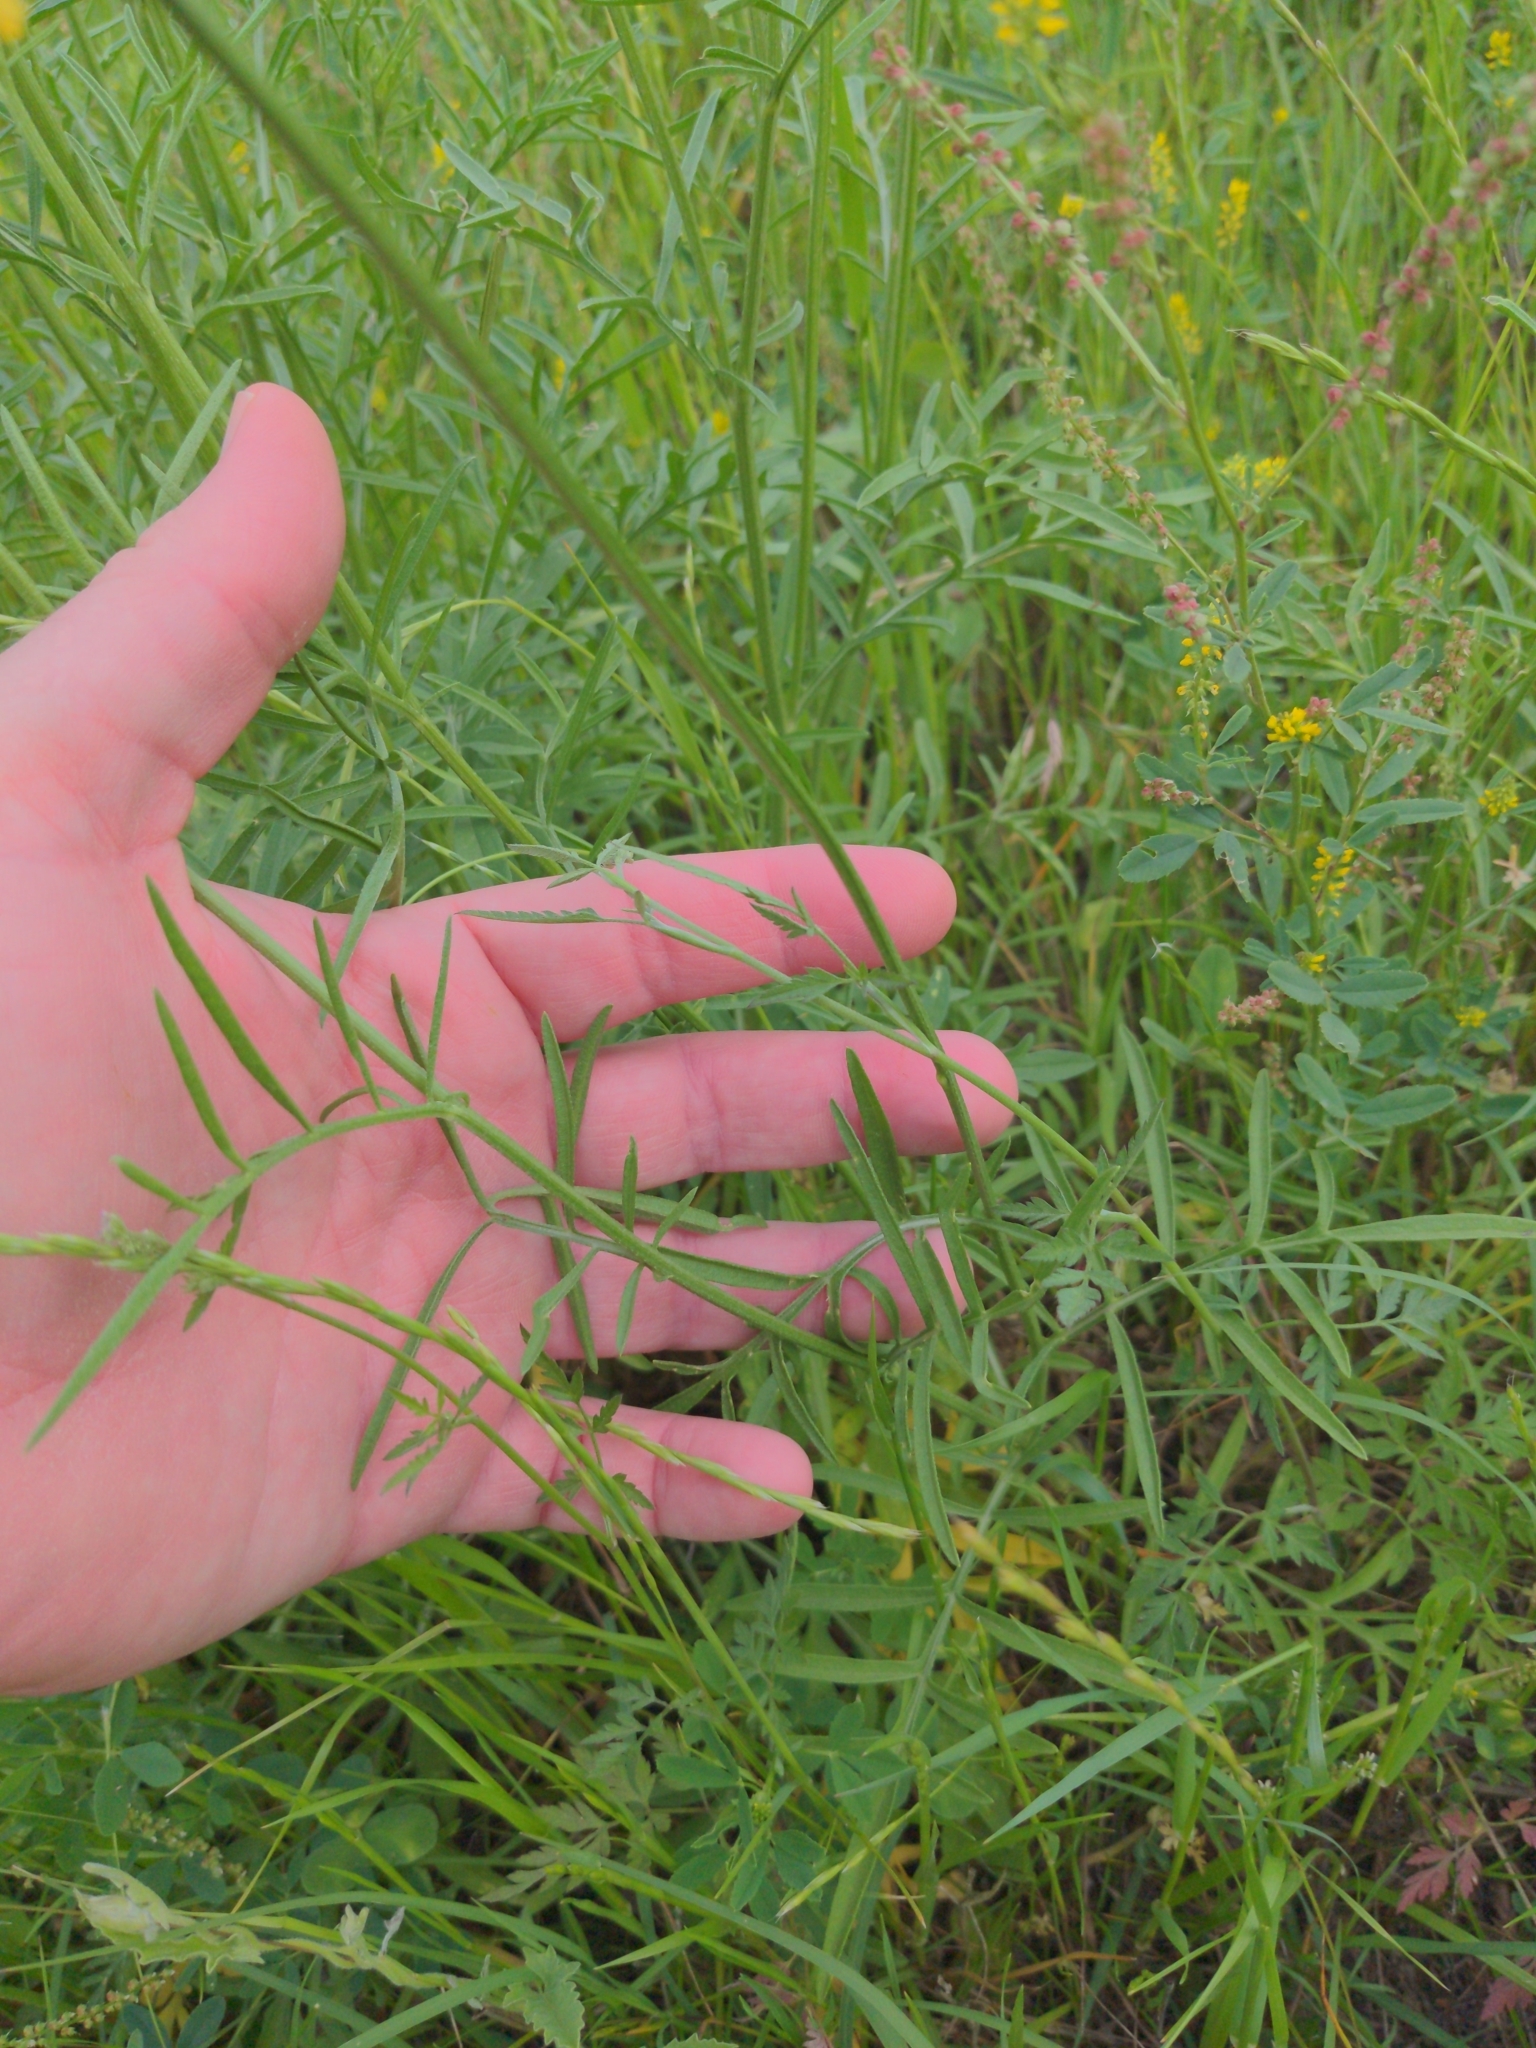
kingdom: Plantae
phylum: Tracheophyta
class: Magnoliopsida
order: Asterales
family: Asteraceae
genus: Ratibida
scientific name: Ratibida columnifera
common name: Prairie coneflower
